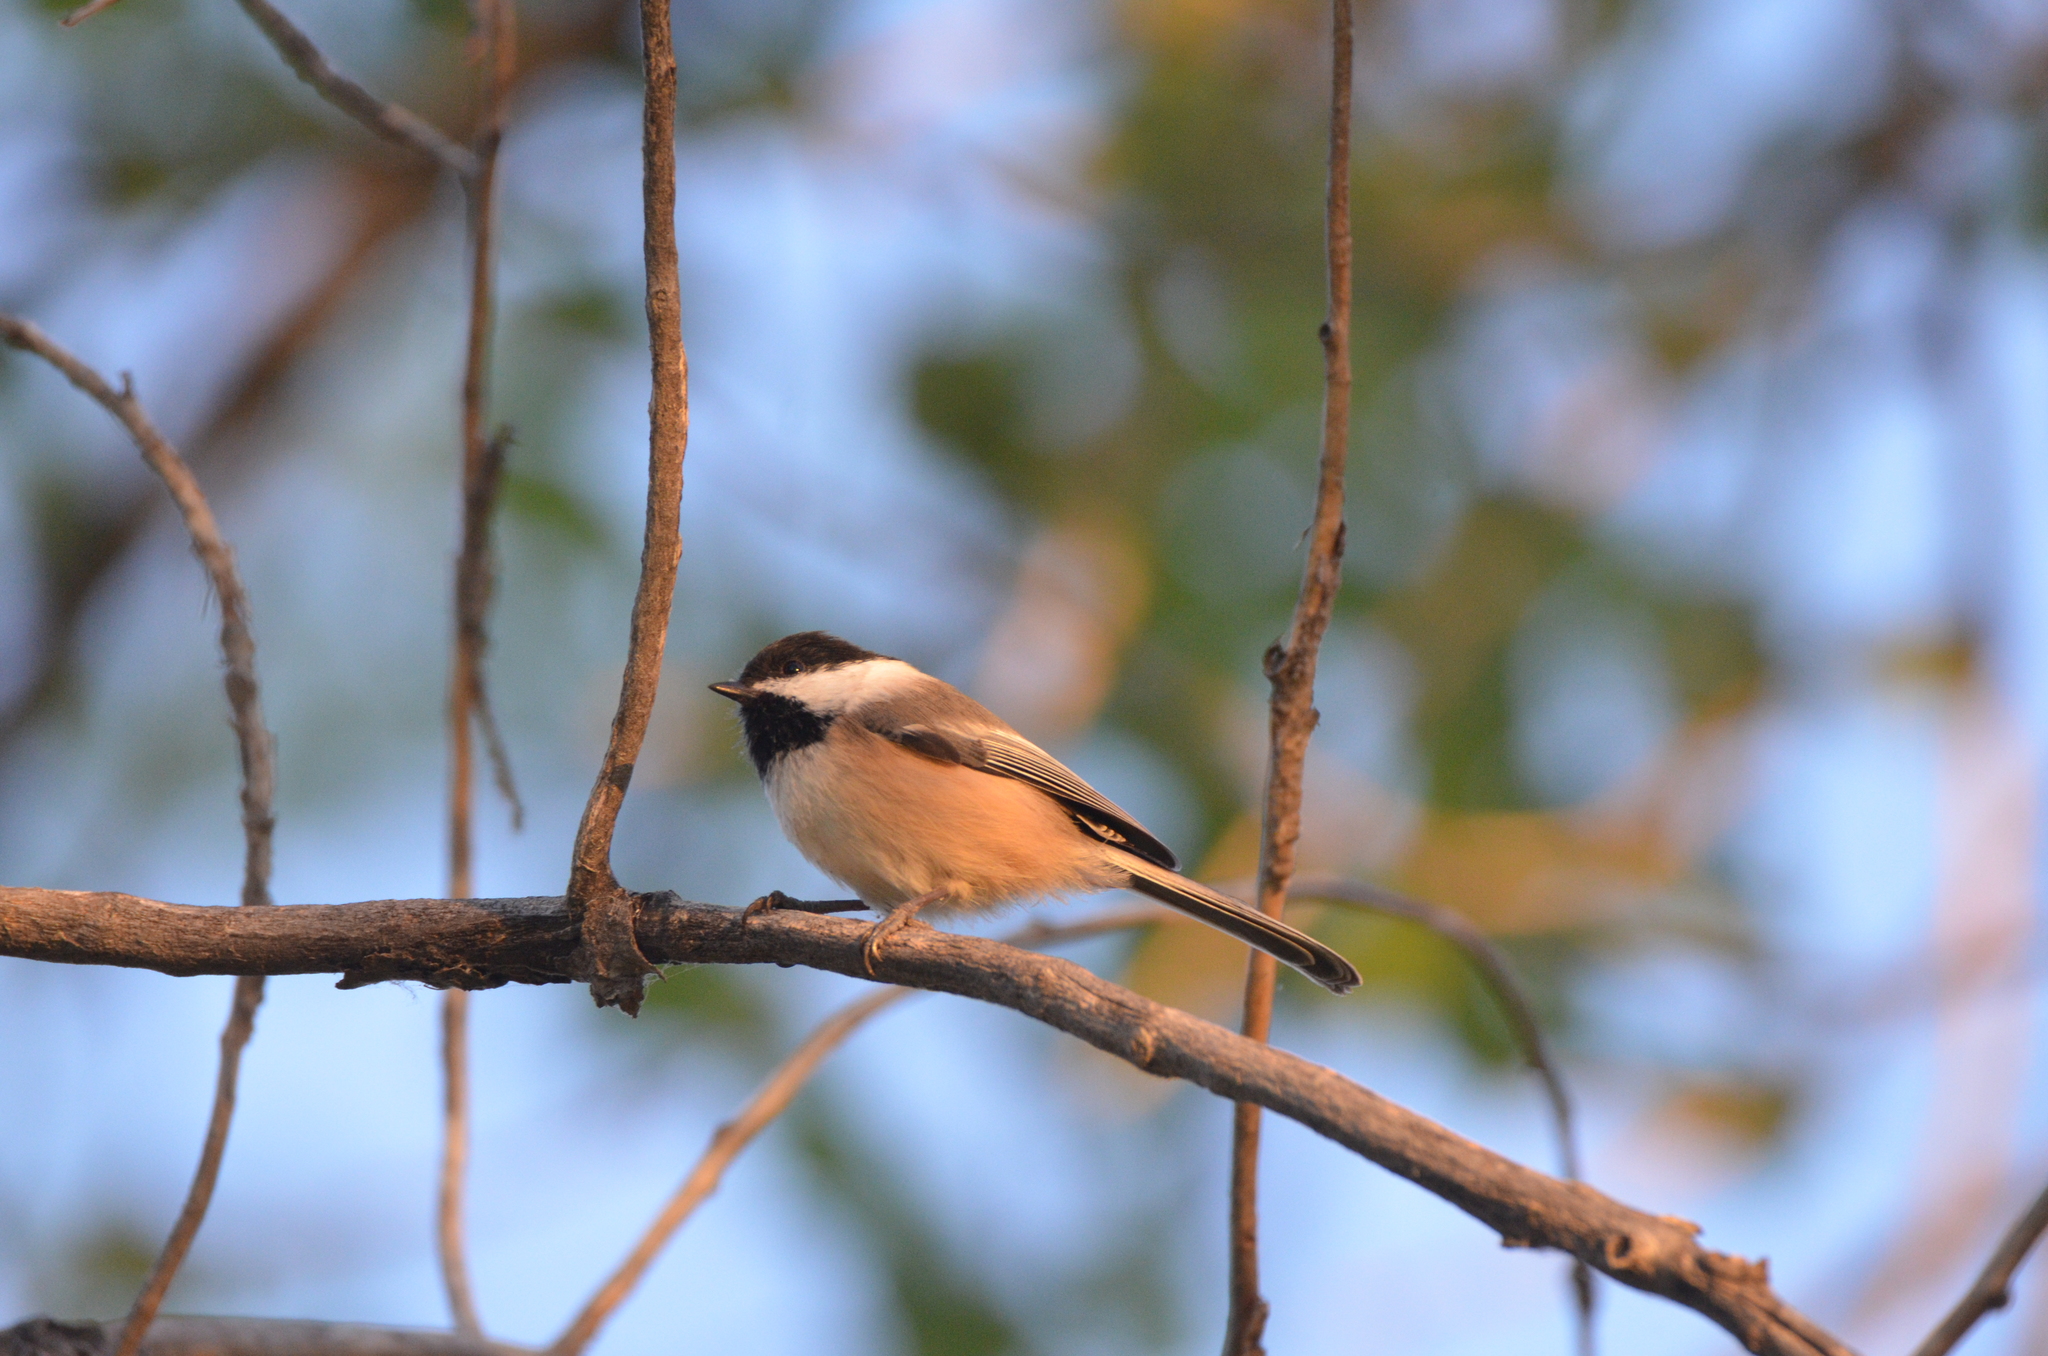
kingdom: Animalia
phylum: Chordata
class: Aves
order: Passeriformes
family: Paridae
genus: Poecile
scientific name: Poecile atricapillus
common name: Black-capped chickadee
